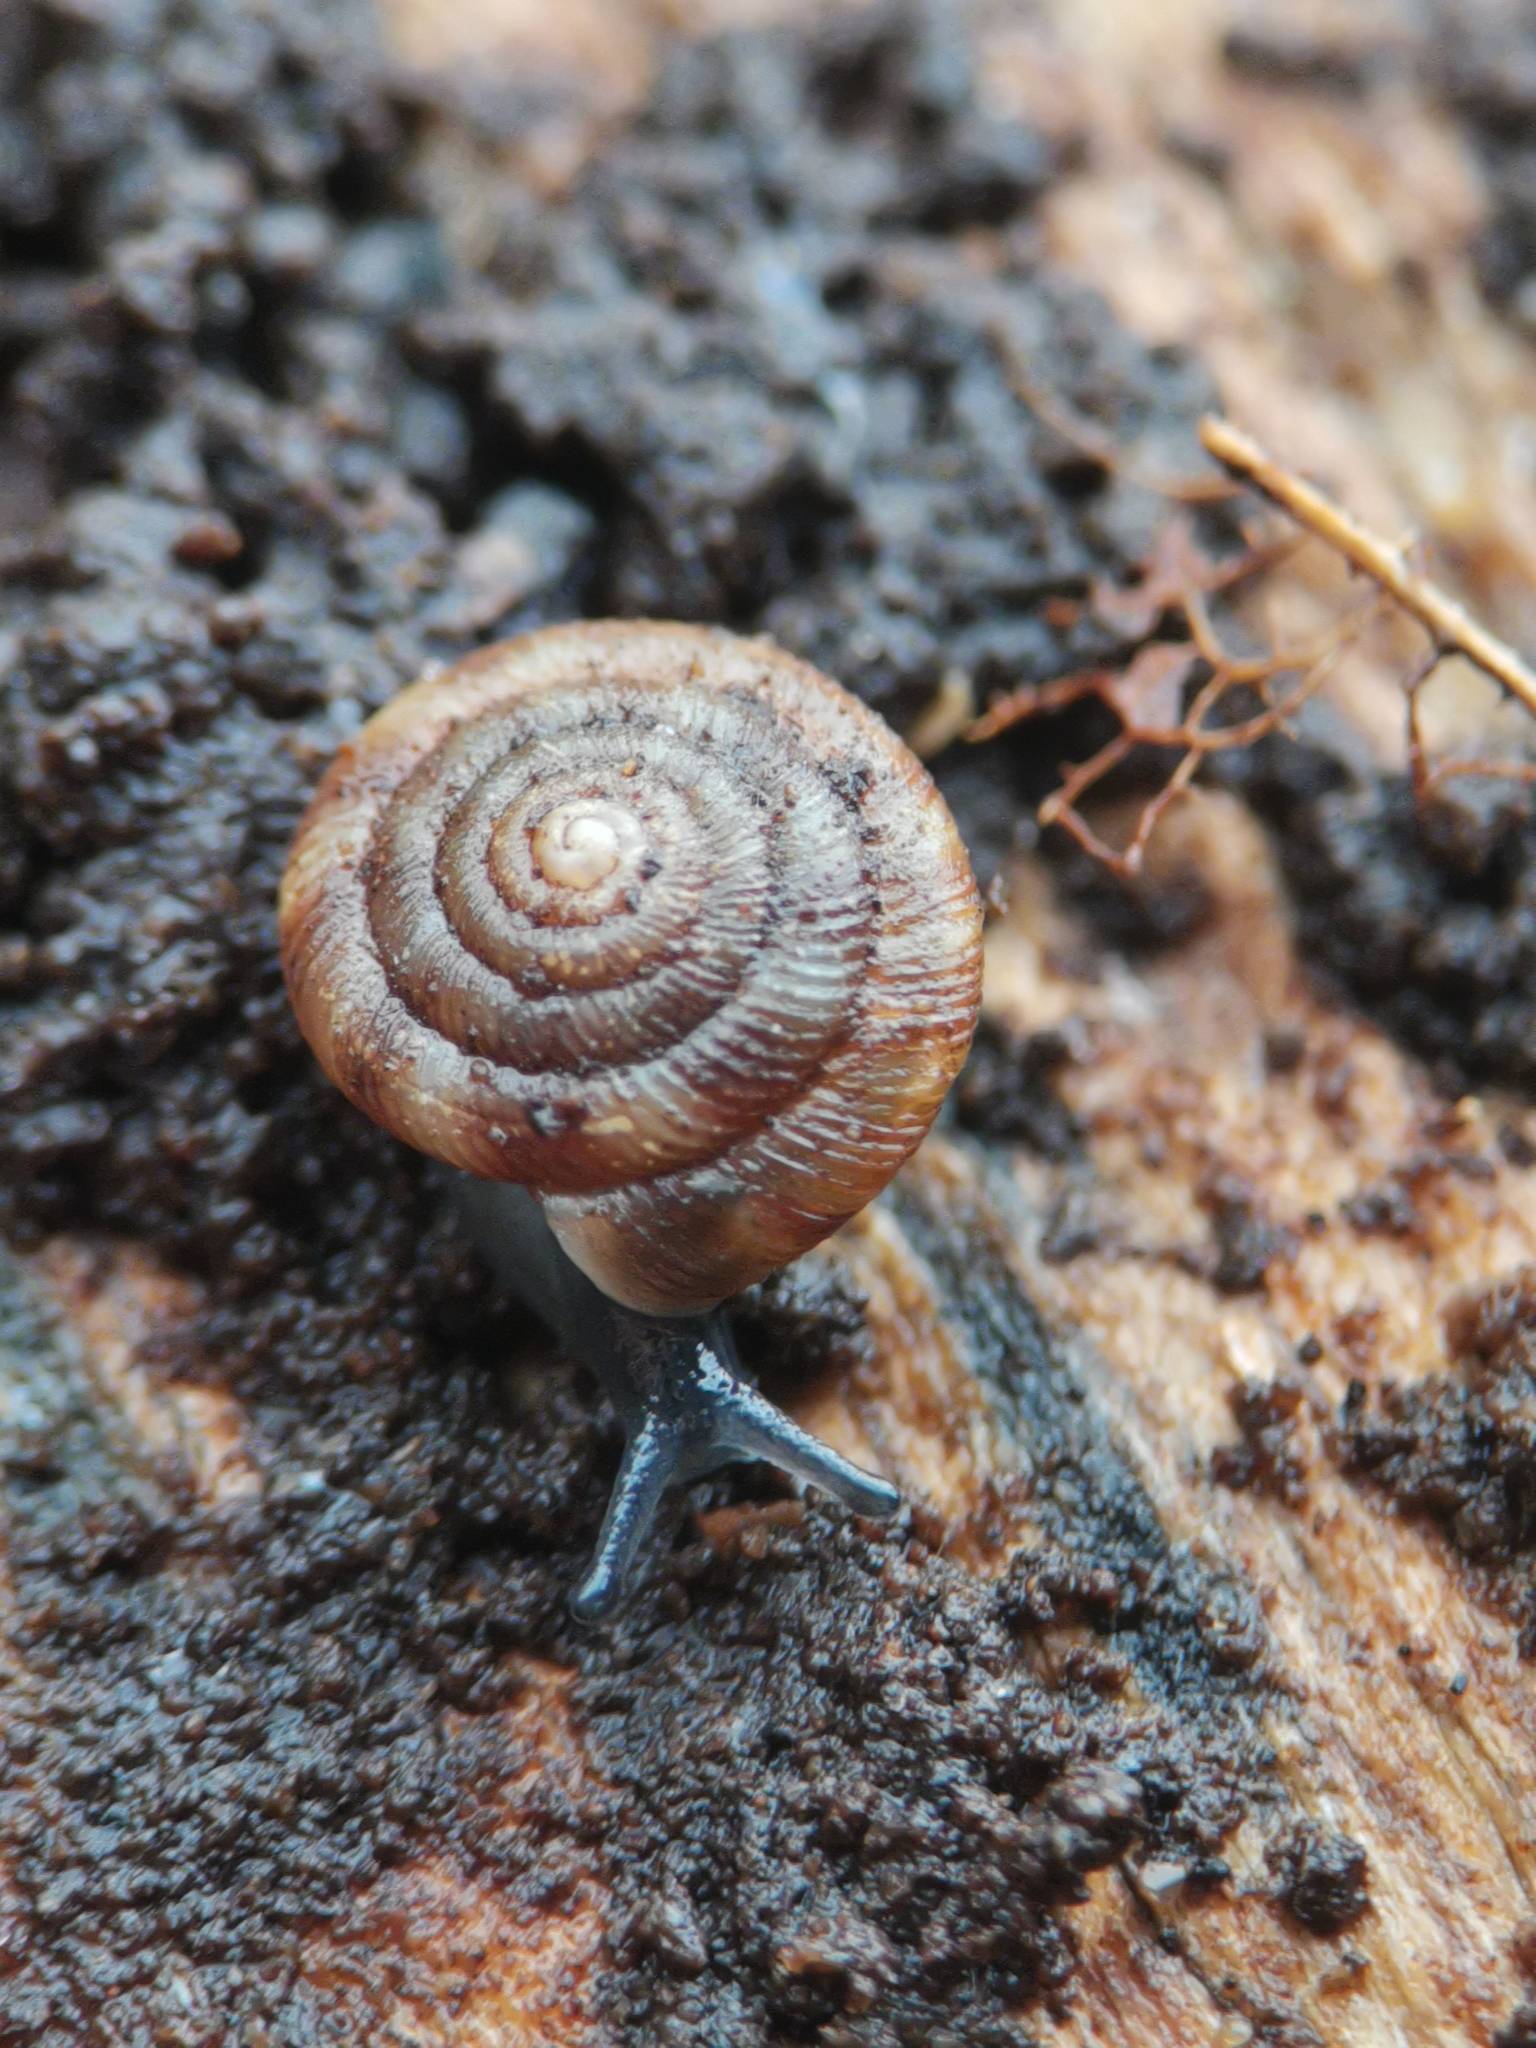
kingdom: Animalia
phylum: Mollusca
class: Gastropoda
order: Stylommatophora
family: Discidae
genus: Discus
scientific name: Discus rotundatus
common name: Rounded snail
